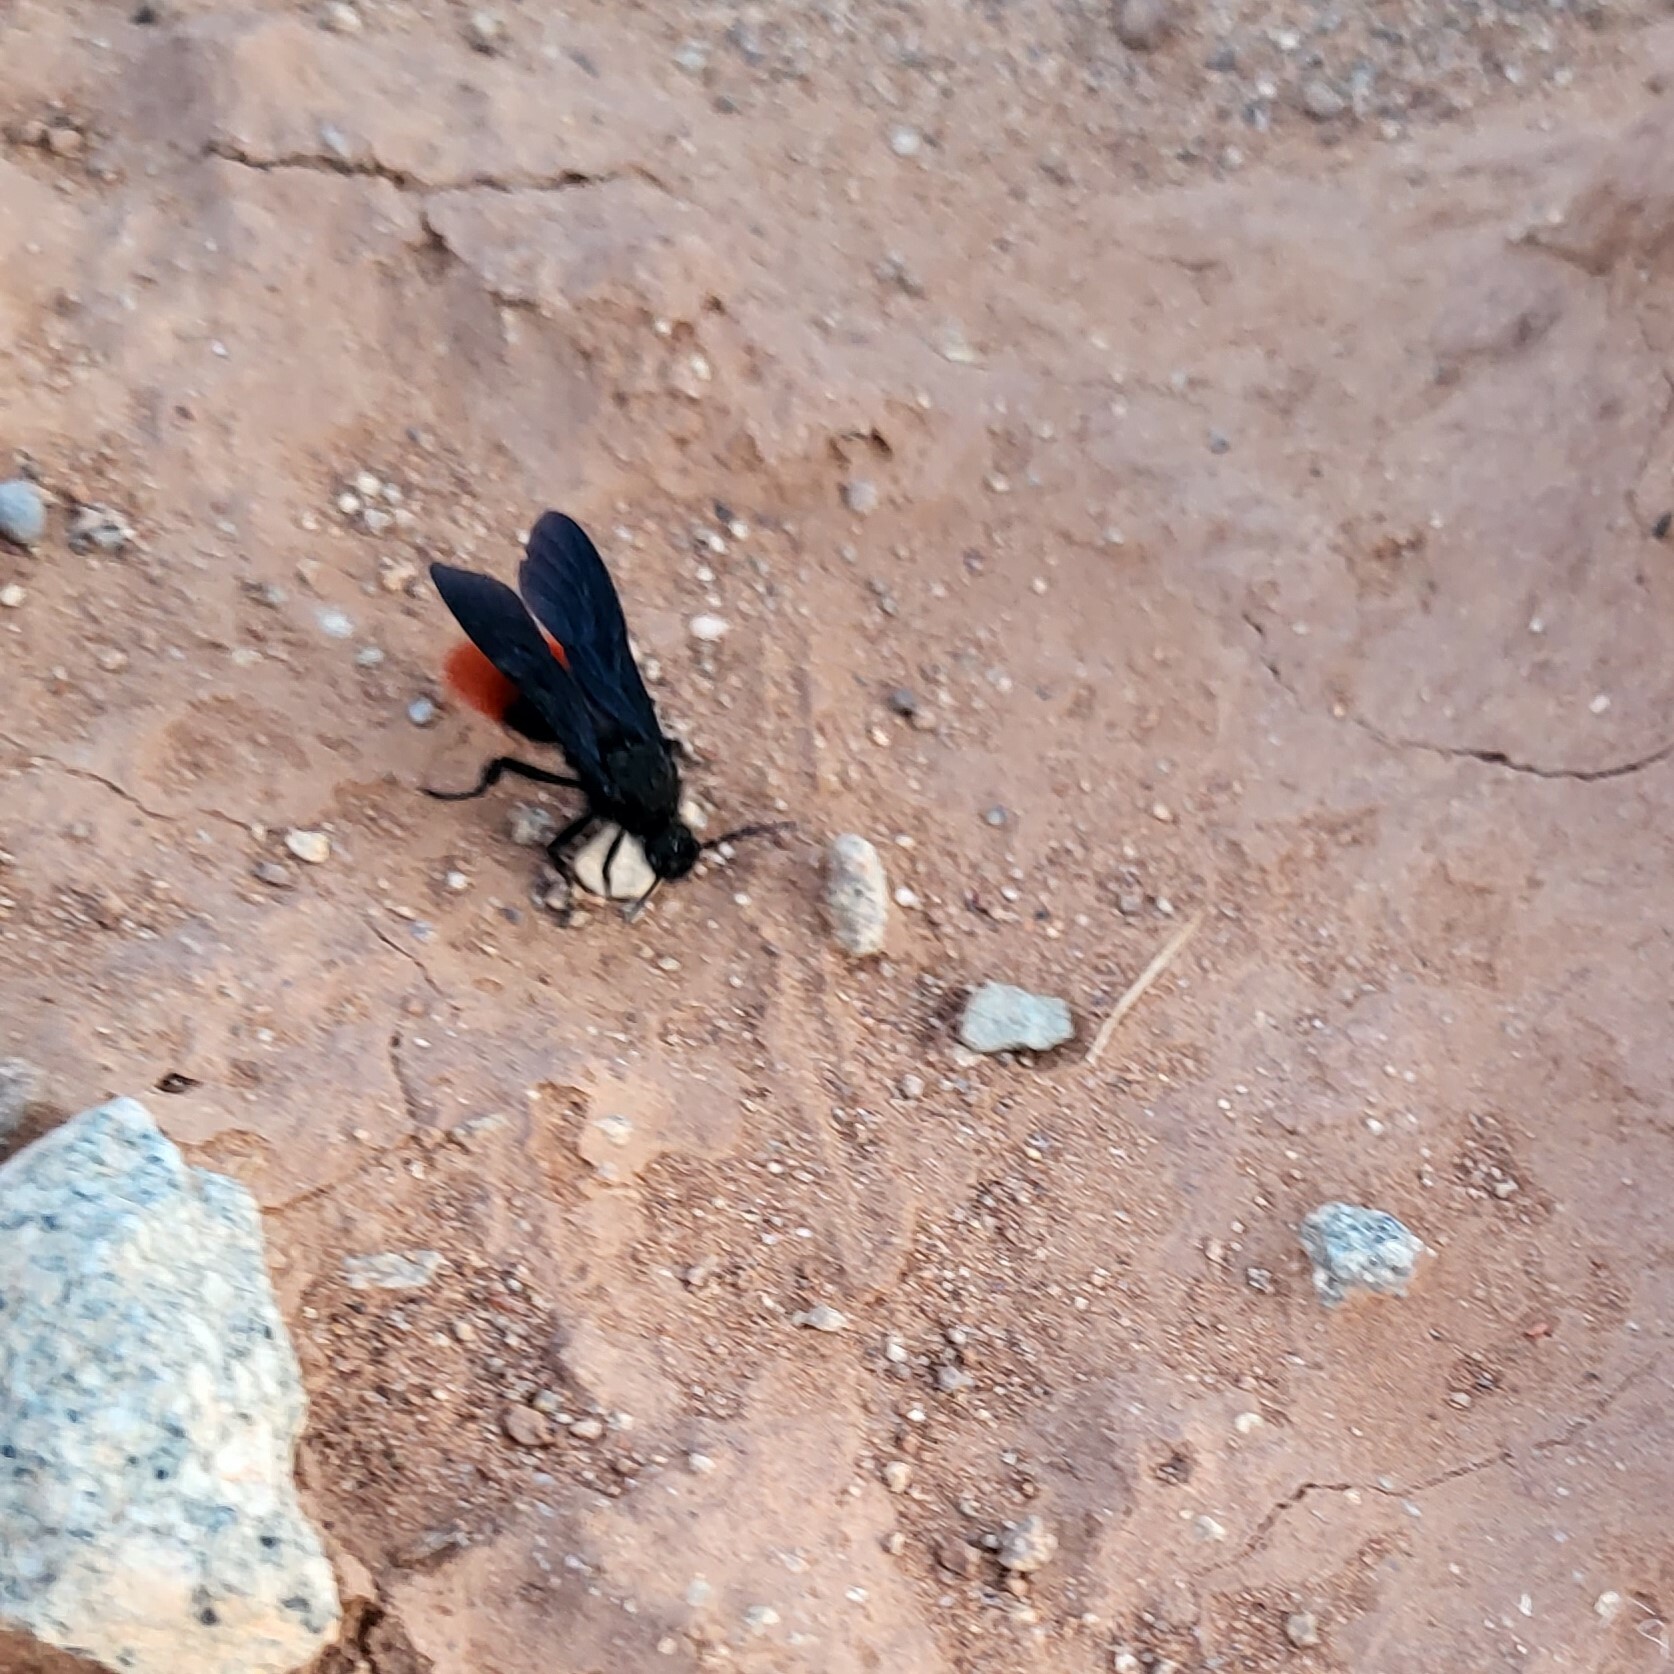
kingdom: Animalia
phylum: Arthropoda
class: Insecta
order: Hymenoptera
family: Mutillidae
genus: Dasymutilla
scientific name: Dasymutilla
